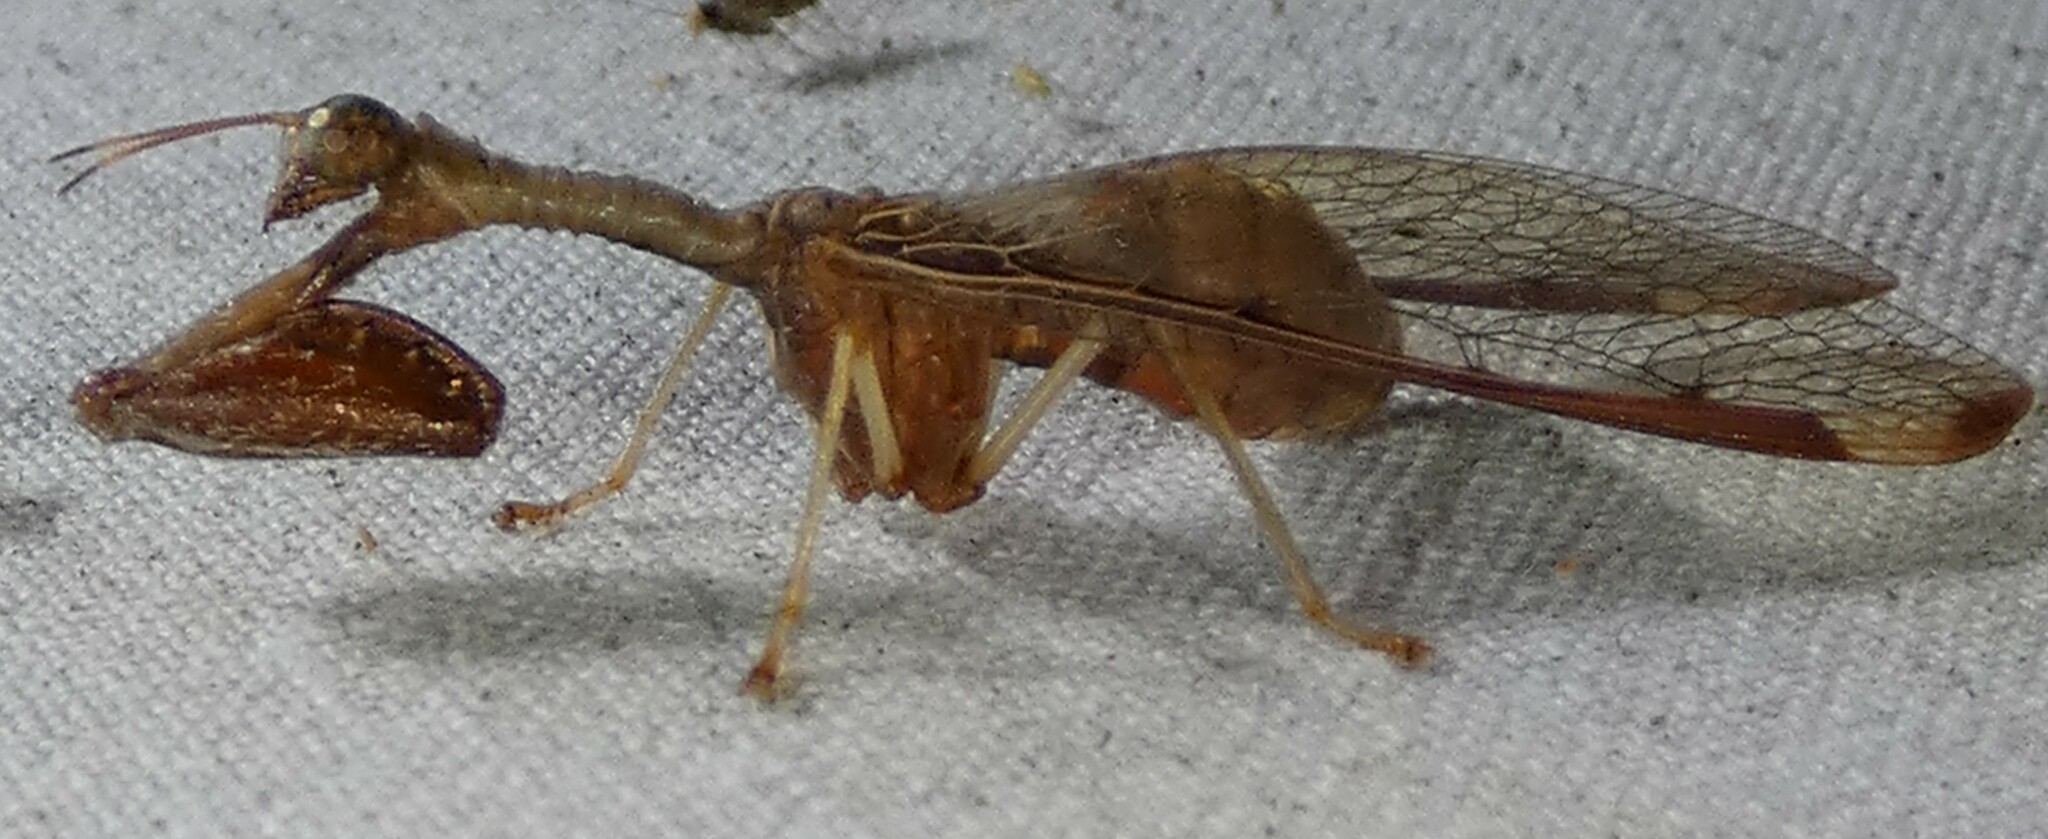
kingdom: Animalia
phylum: Arthropoda
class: Insecta
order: Neuroptera
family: Mantispidae
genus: Dicromantispa
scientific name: Dicromantispa interrupta
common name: Four-spotted mantidfly
